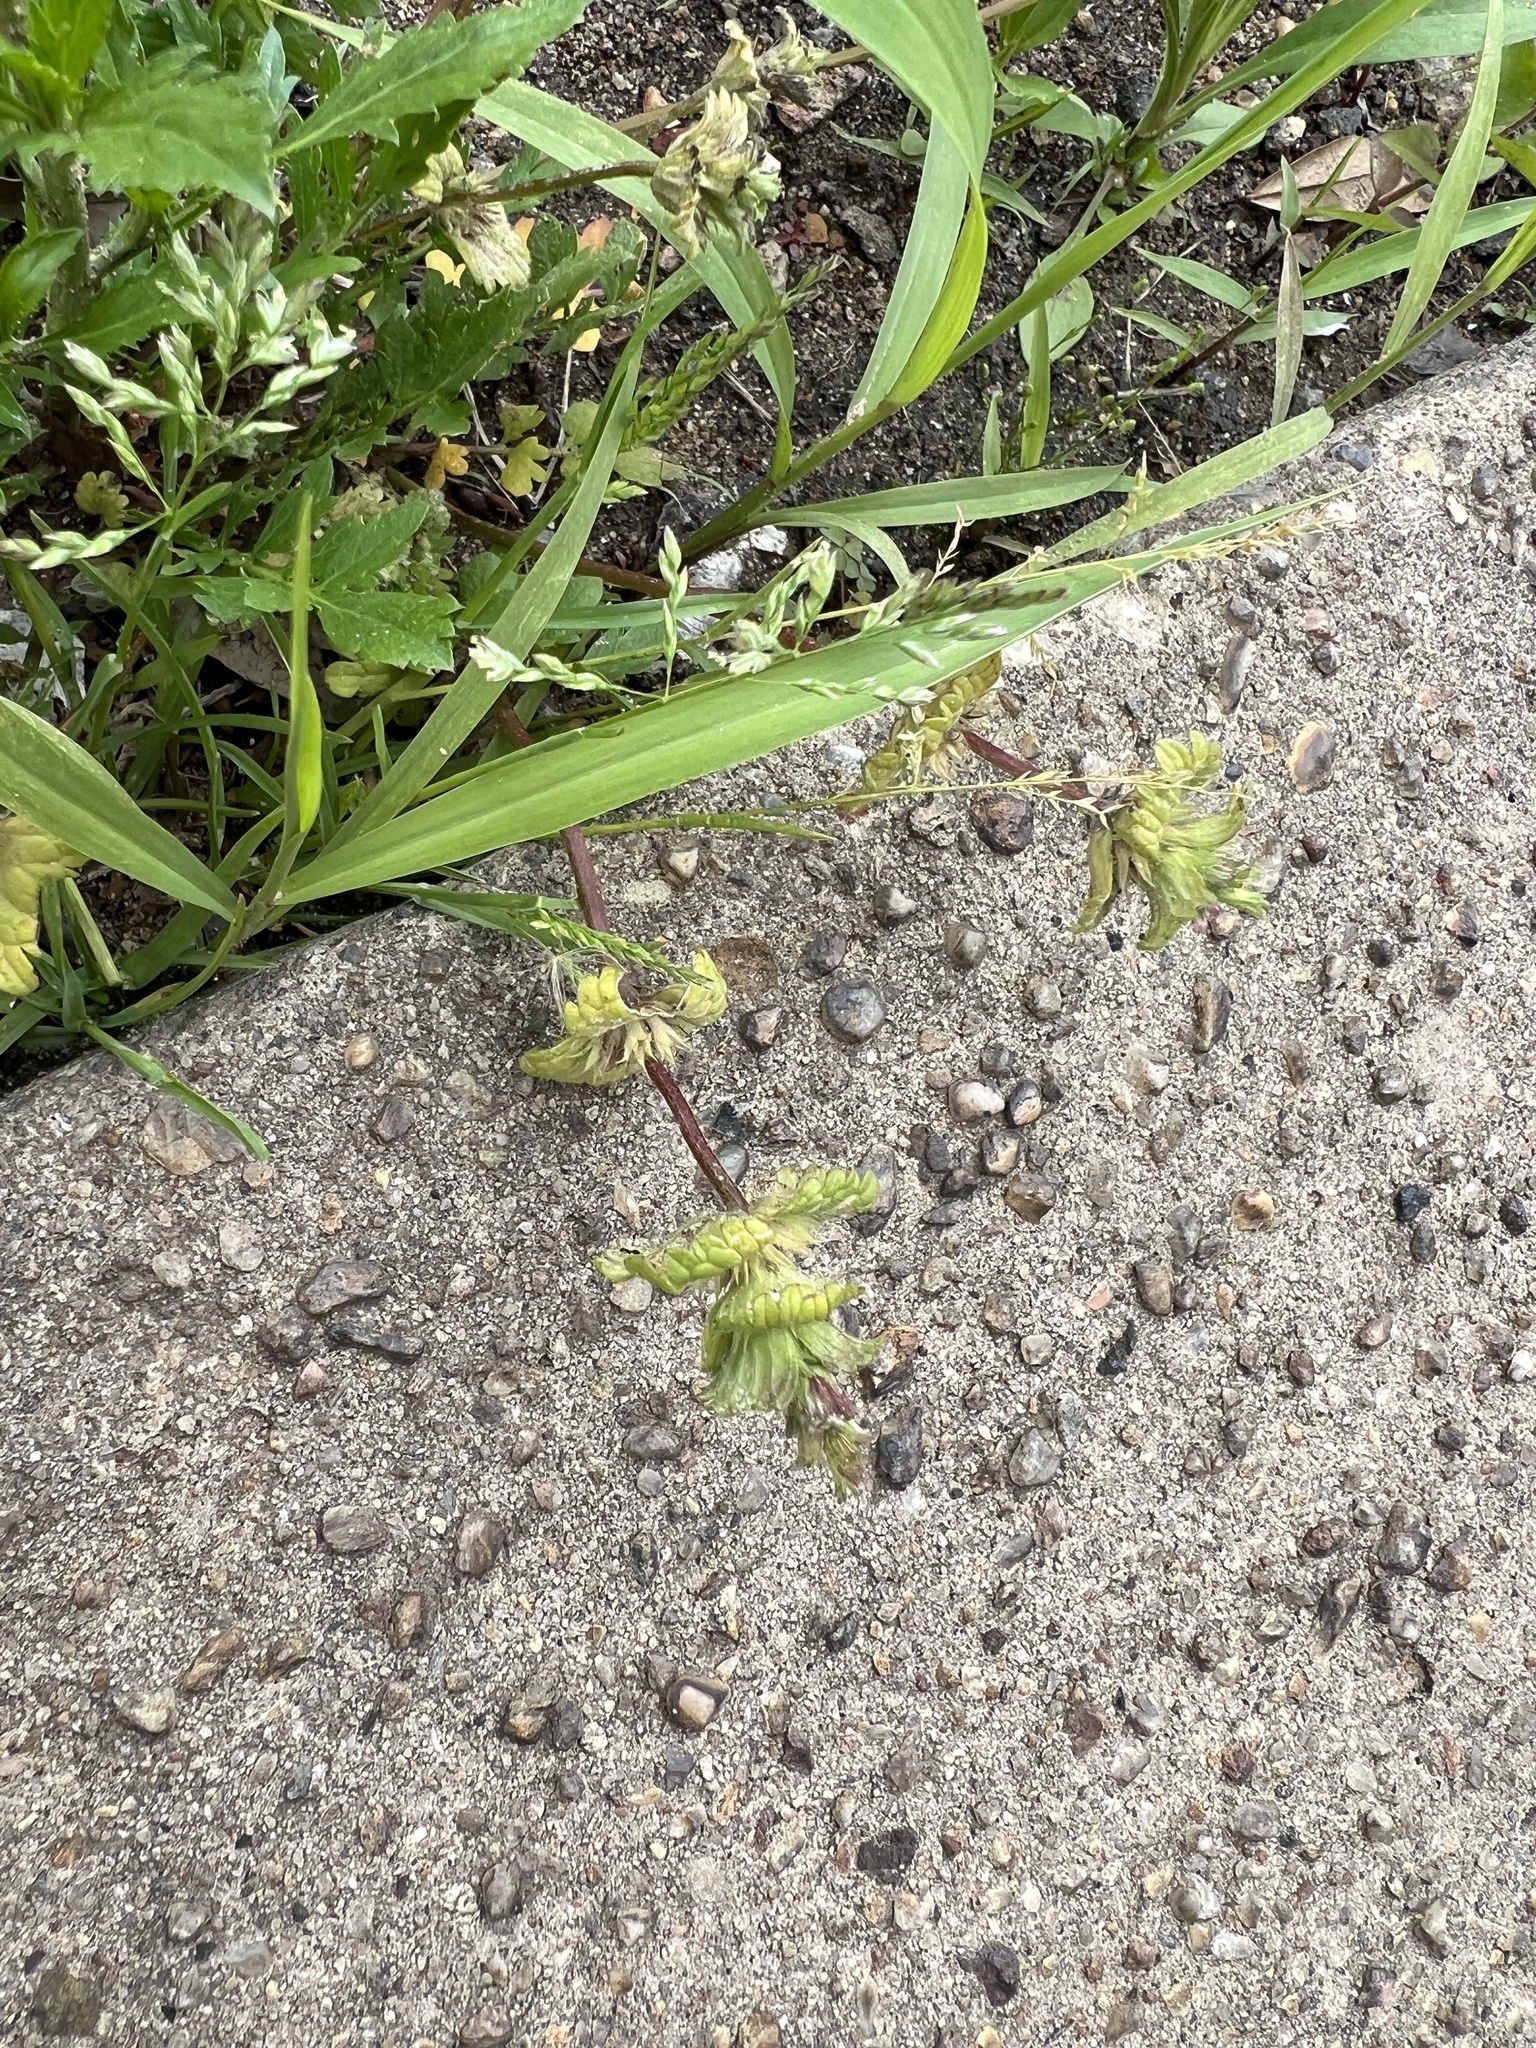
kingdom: Plantae
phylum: Tracheophyta
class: Magnoliopsida
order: Lamiales
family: Lamiaceae
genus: Lamium
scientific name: Lamium amplexicaule
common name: Henbit dead-nettle
